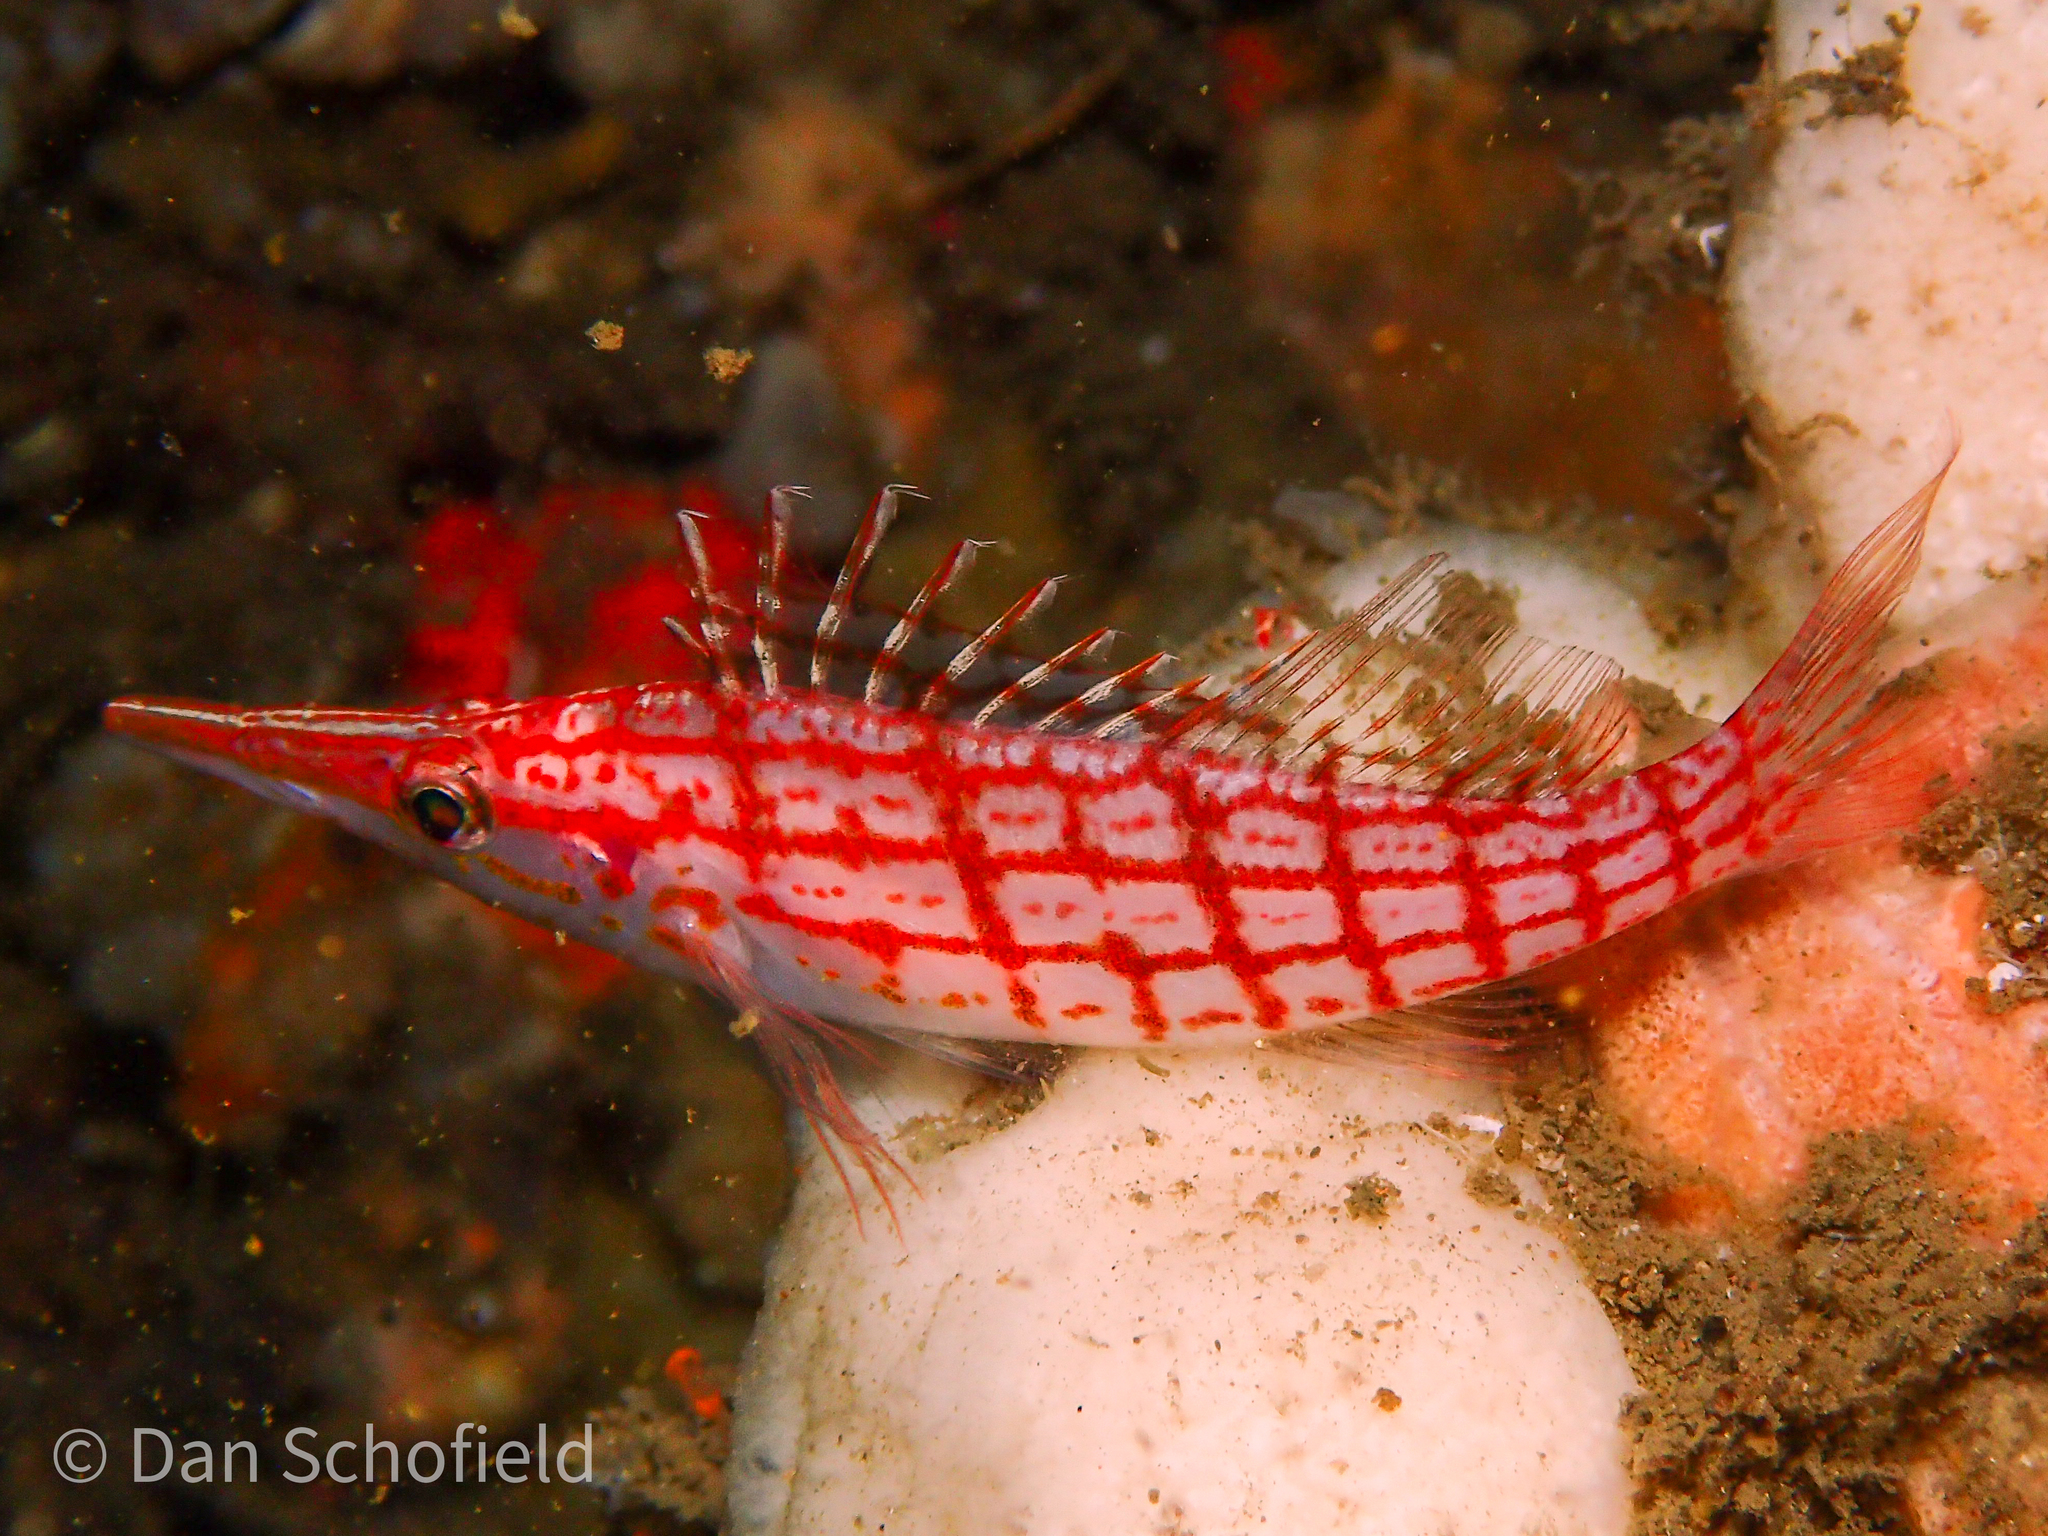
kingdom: Animalia
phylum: Chordata
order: Perciformes
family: Cirrhitidae
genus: Oxycirrhites
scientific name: Oxycirrhites typus
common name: Longnose hawkfish
